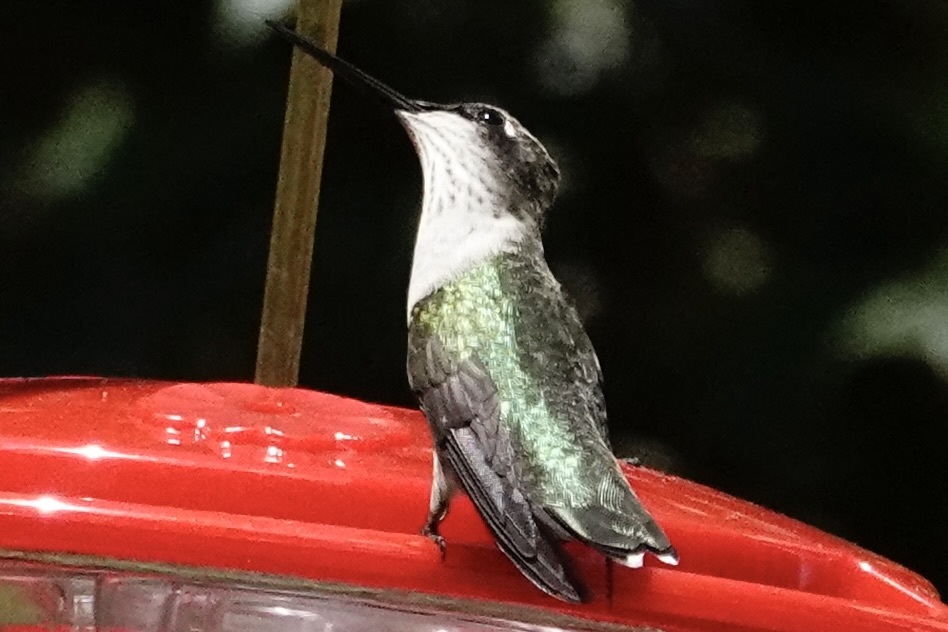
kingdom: Animalia
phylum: Chordata
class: Aves
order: Apodiformes
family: Trochilidae
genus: Archilochus
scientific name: Archilochus colubris
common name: Ruby-throated hummingbird
